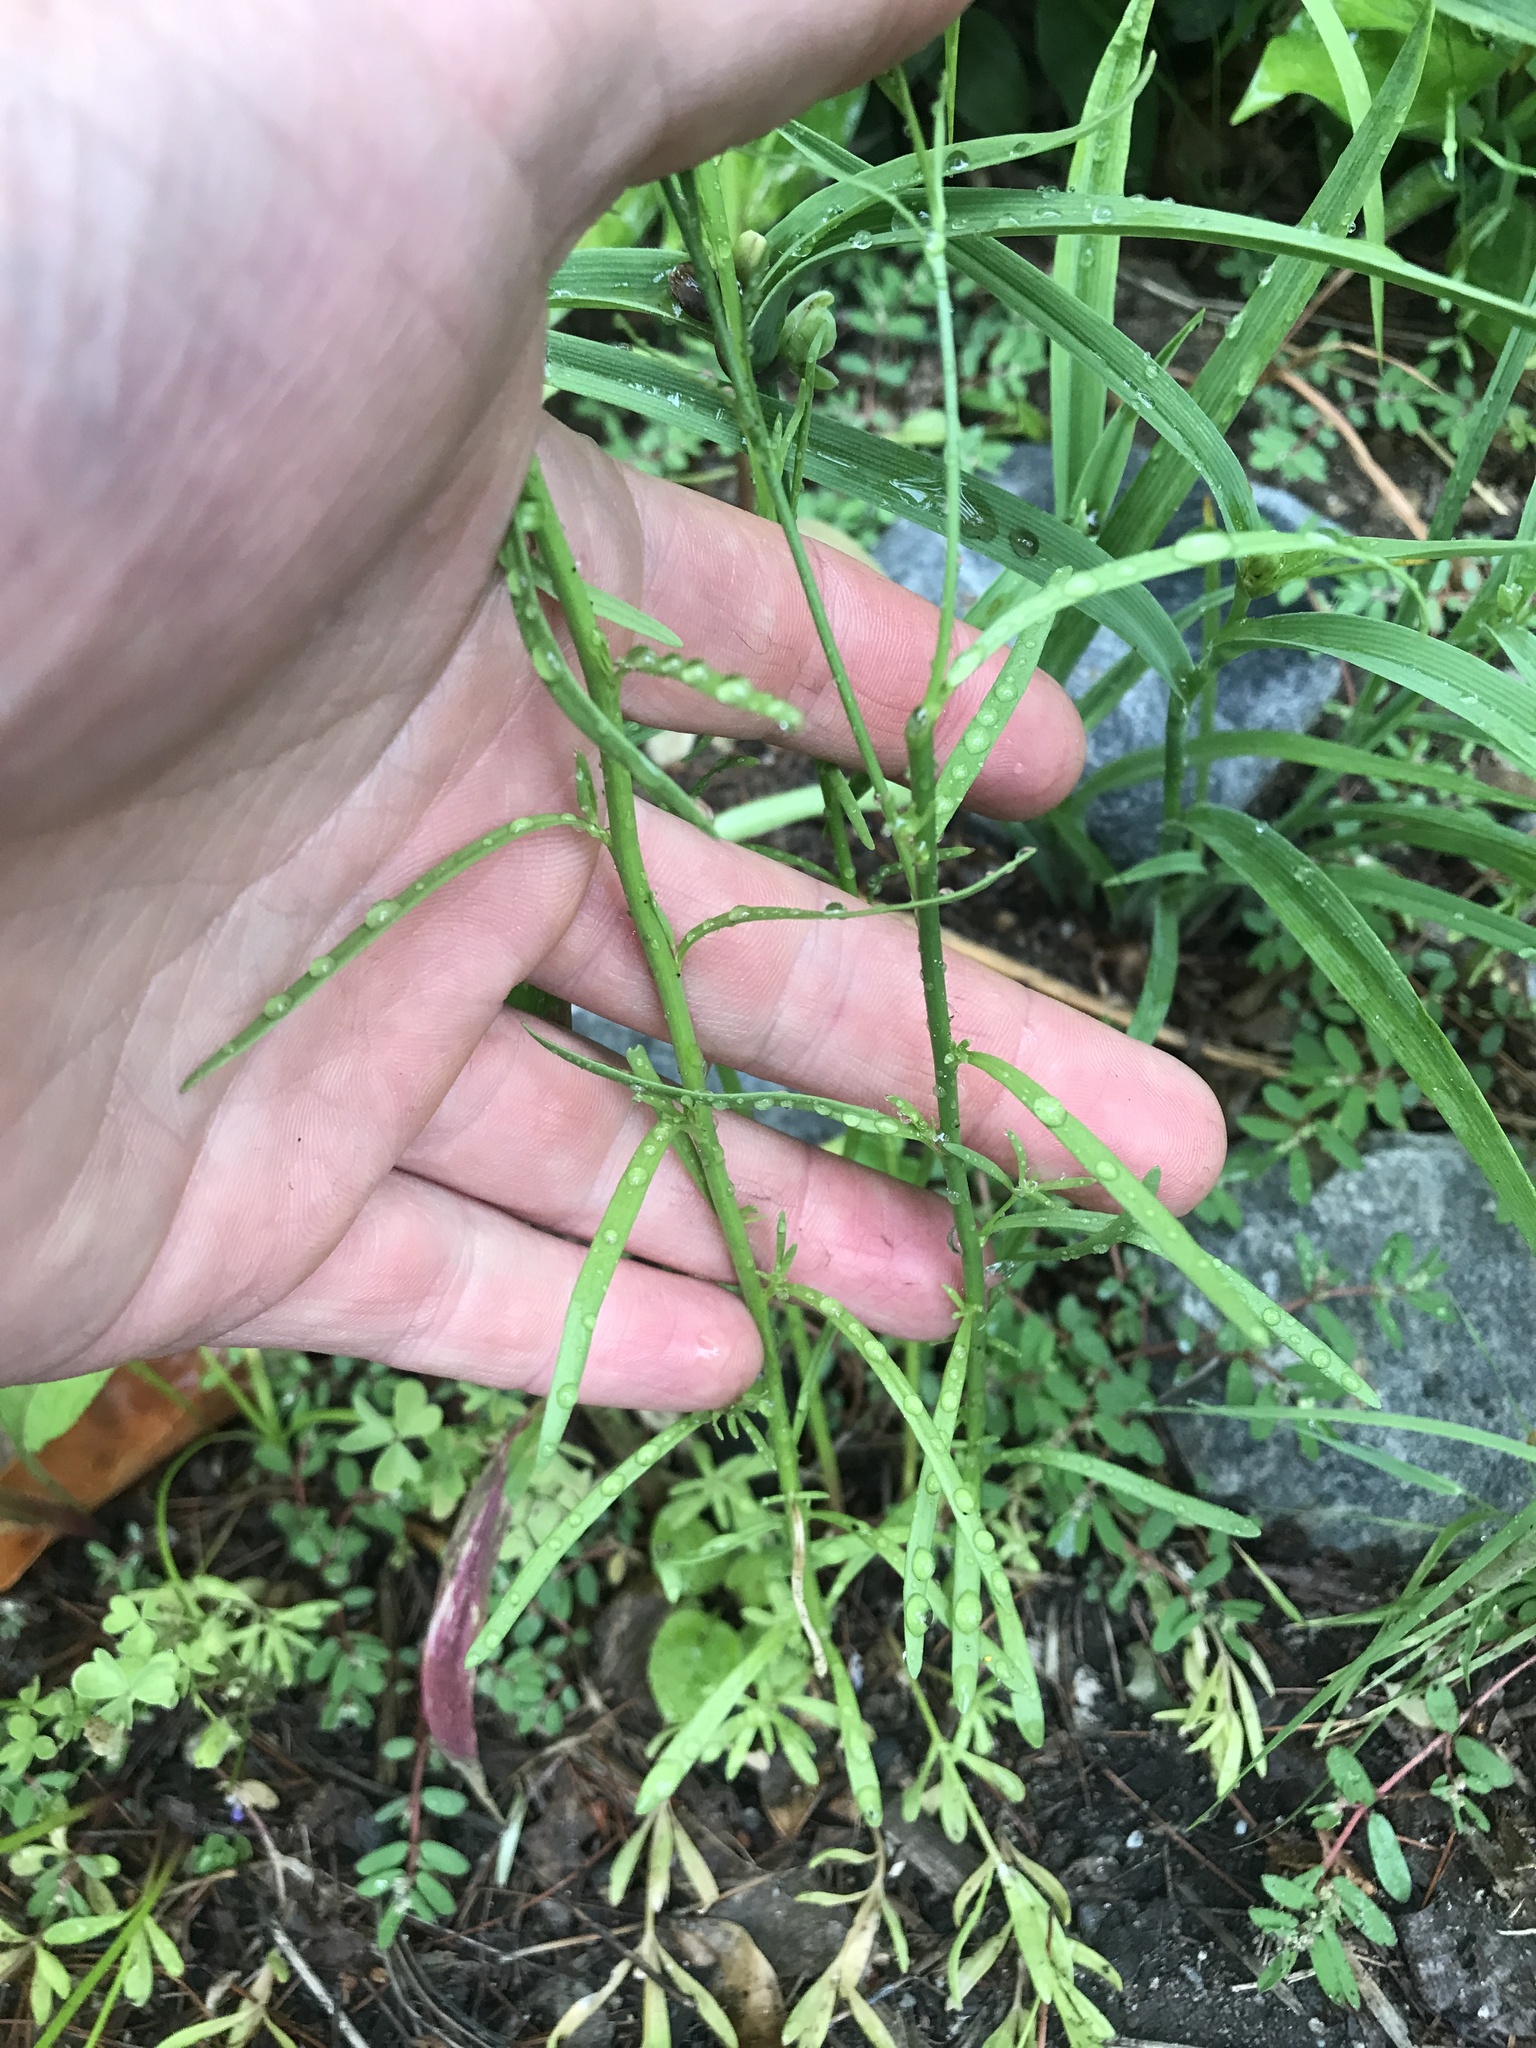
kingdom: Plantae
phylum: Tracheophyta
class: Magnoliopsida
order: Lamiales
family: Plantaginaceae
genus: Nuttallanthus
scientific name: Nuttallanthus canadensis
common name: Blue toadflax
